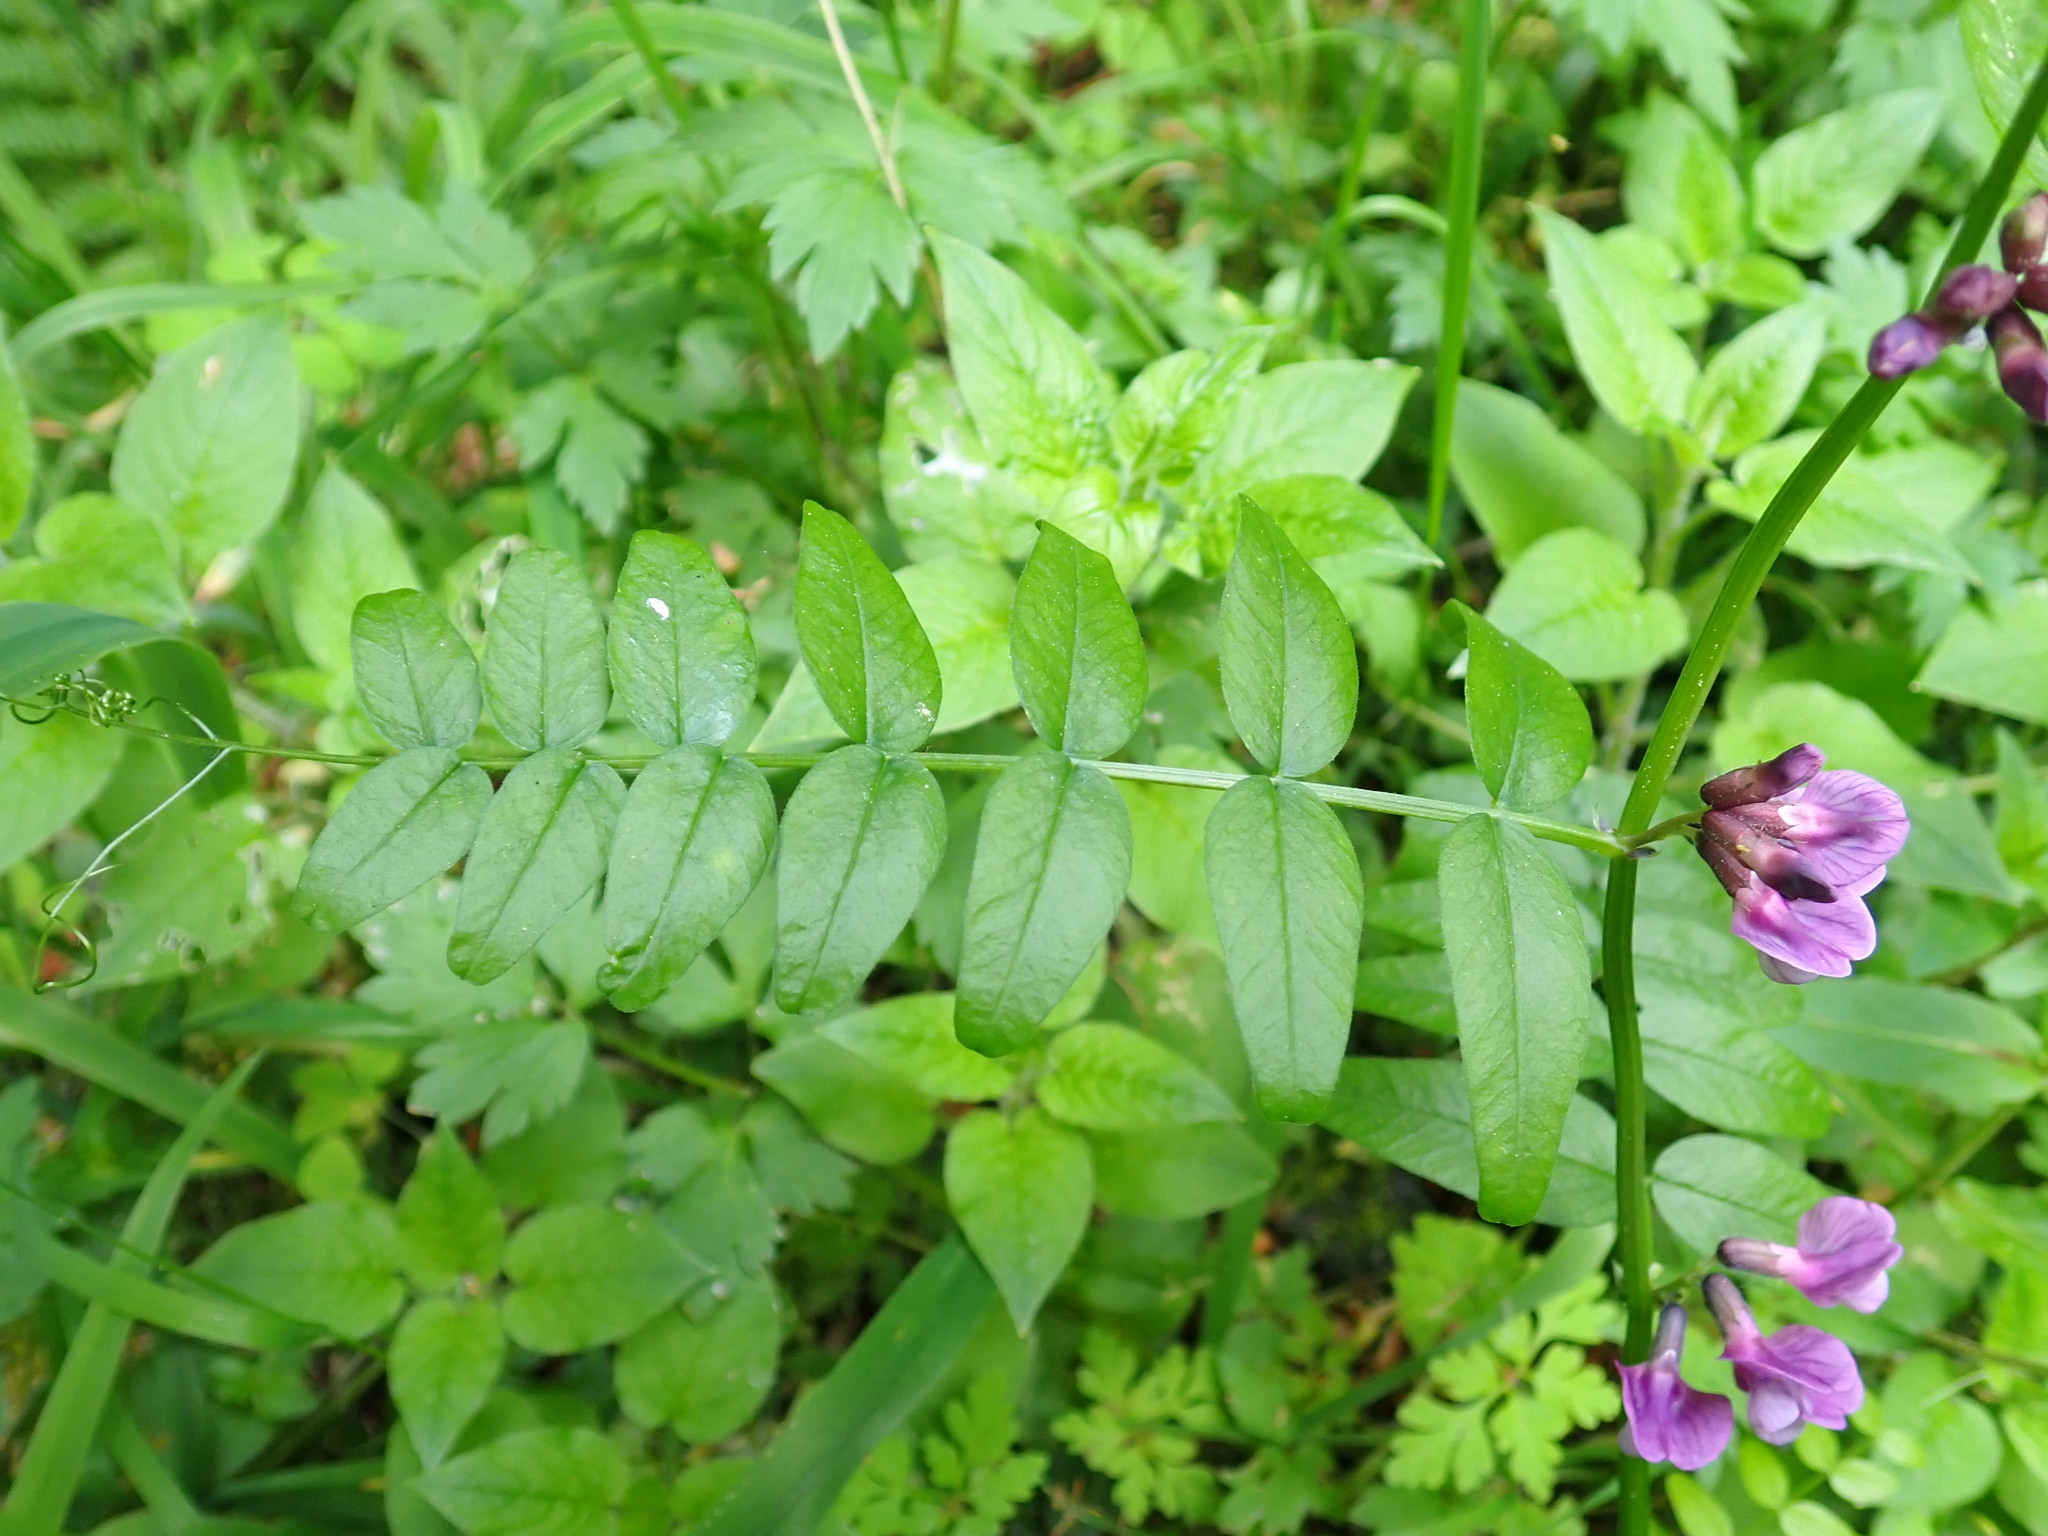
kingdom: Plantae
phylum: Tracheophyta
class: Magnoliopsida
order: Fabales
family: Fabaceae
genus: Vicia
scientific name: Vicia sepium
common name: Bush vetch
